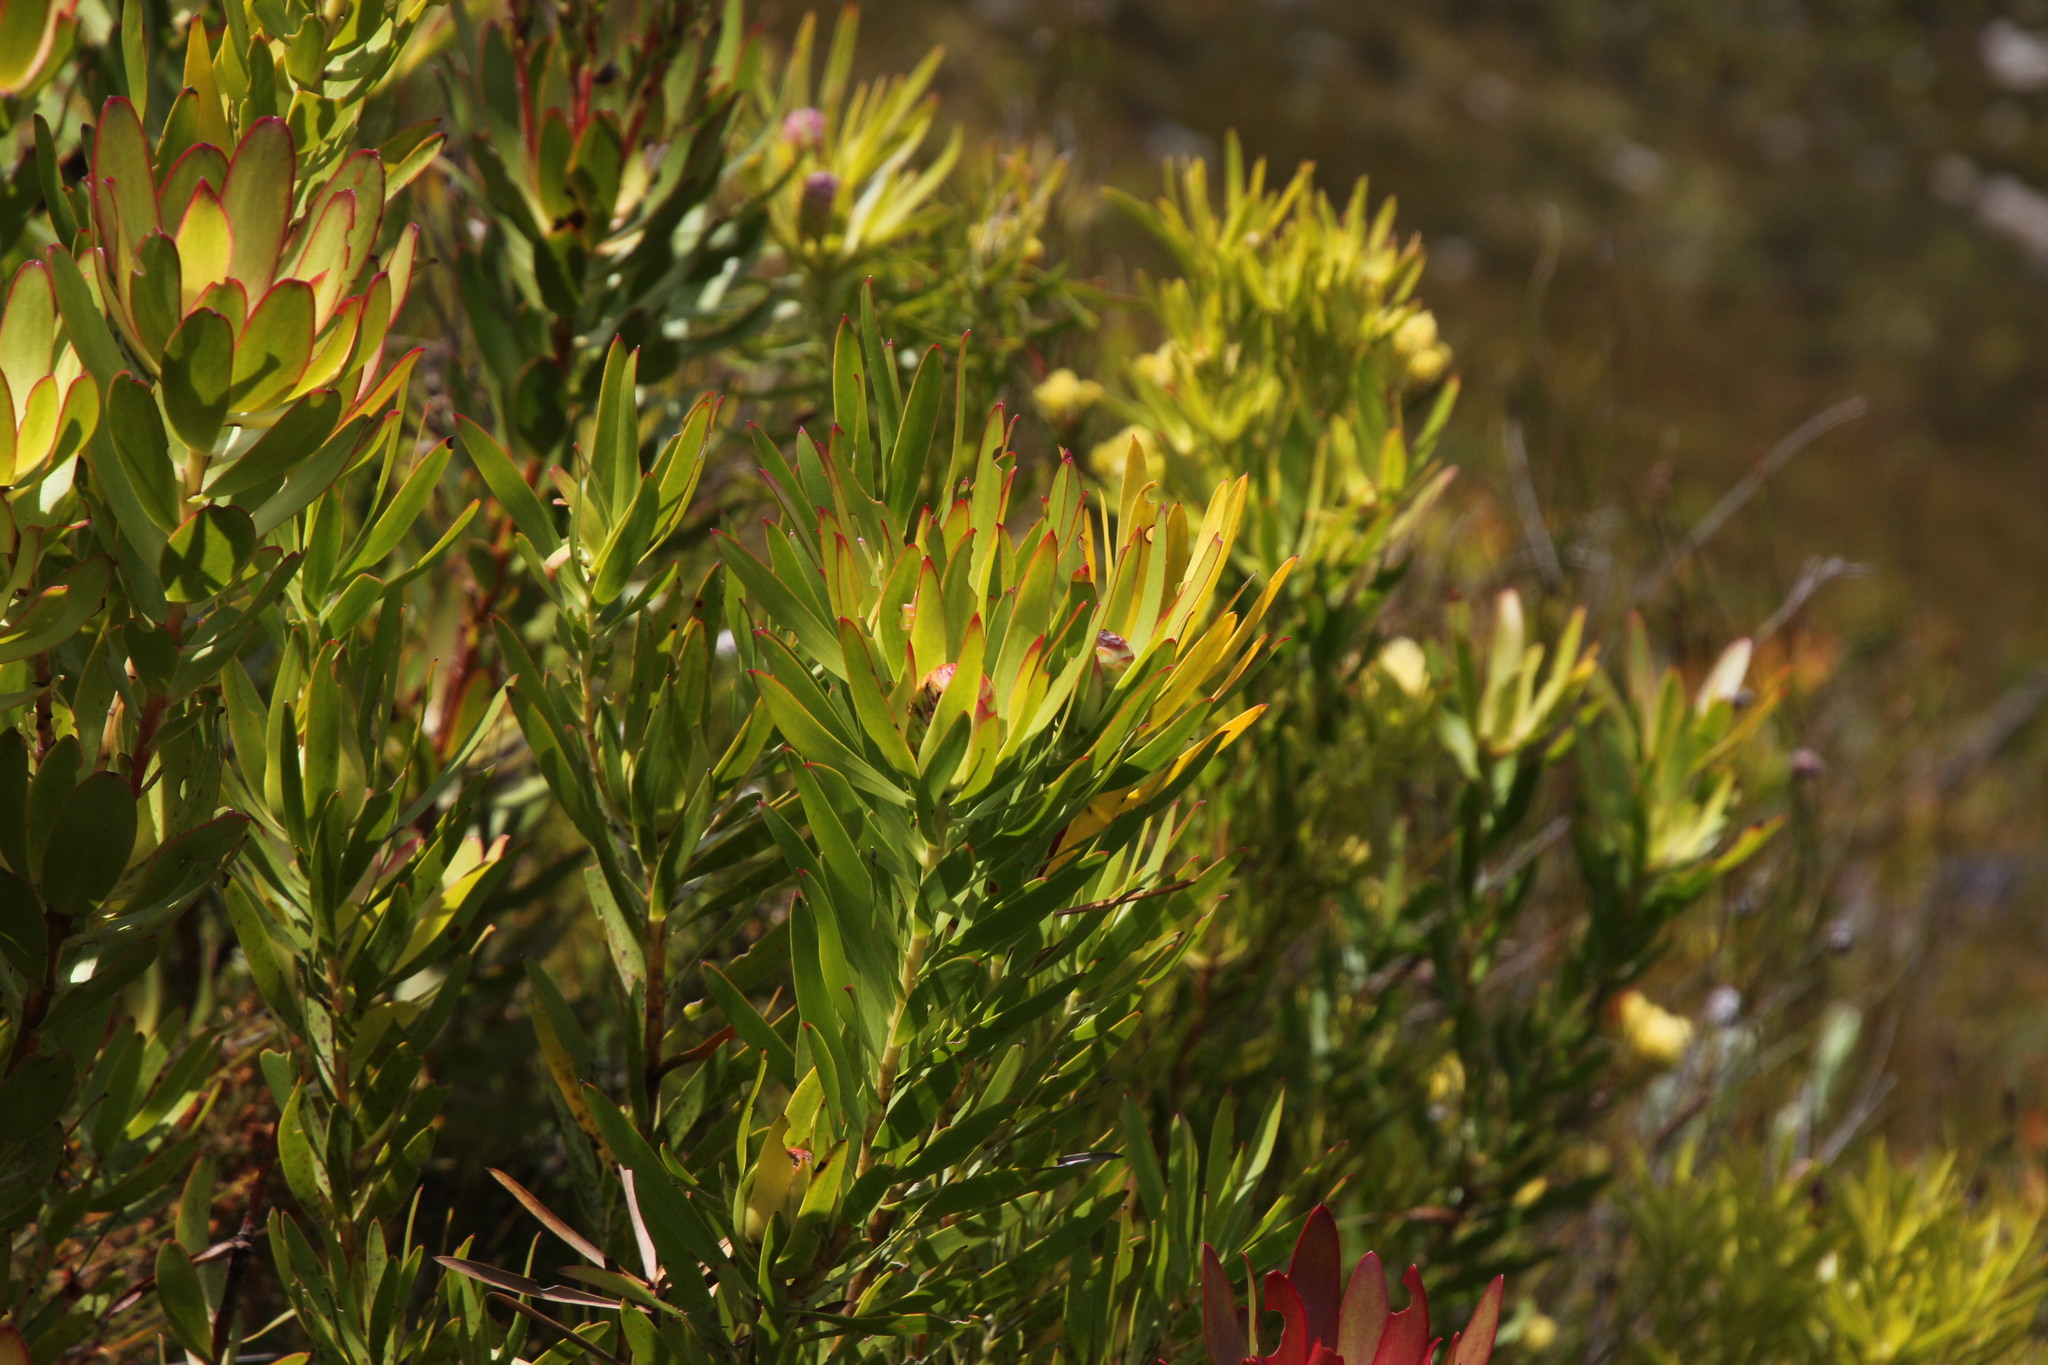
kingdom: Plantae
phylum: Tracheophyta
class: Magnoliopsida
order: Proteales
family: Proteaceae
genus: Leucadendron
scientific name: Leucadendron
